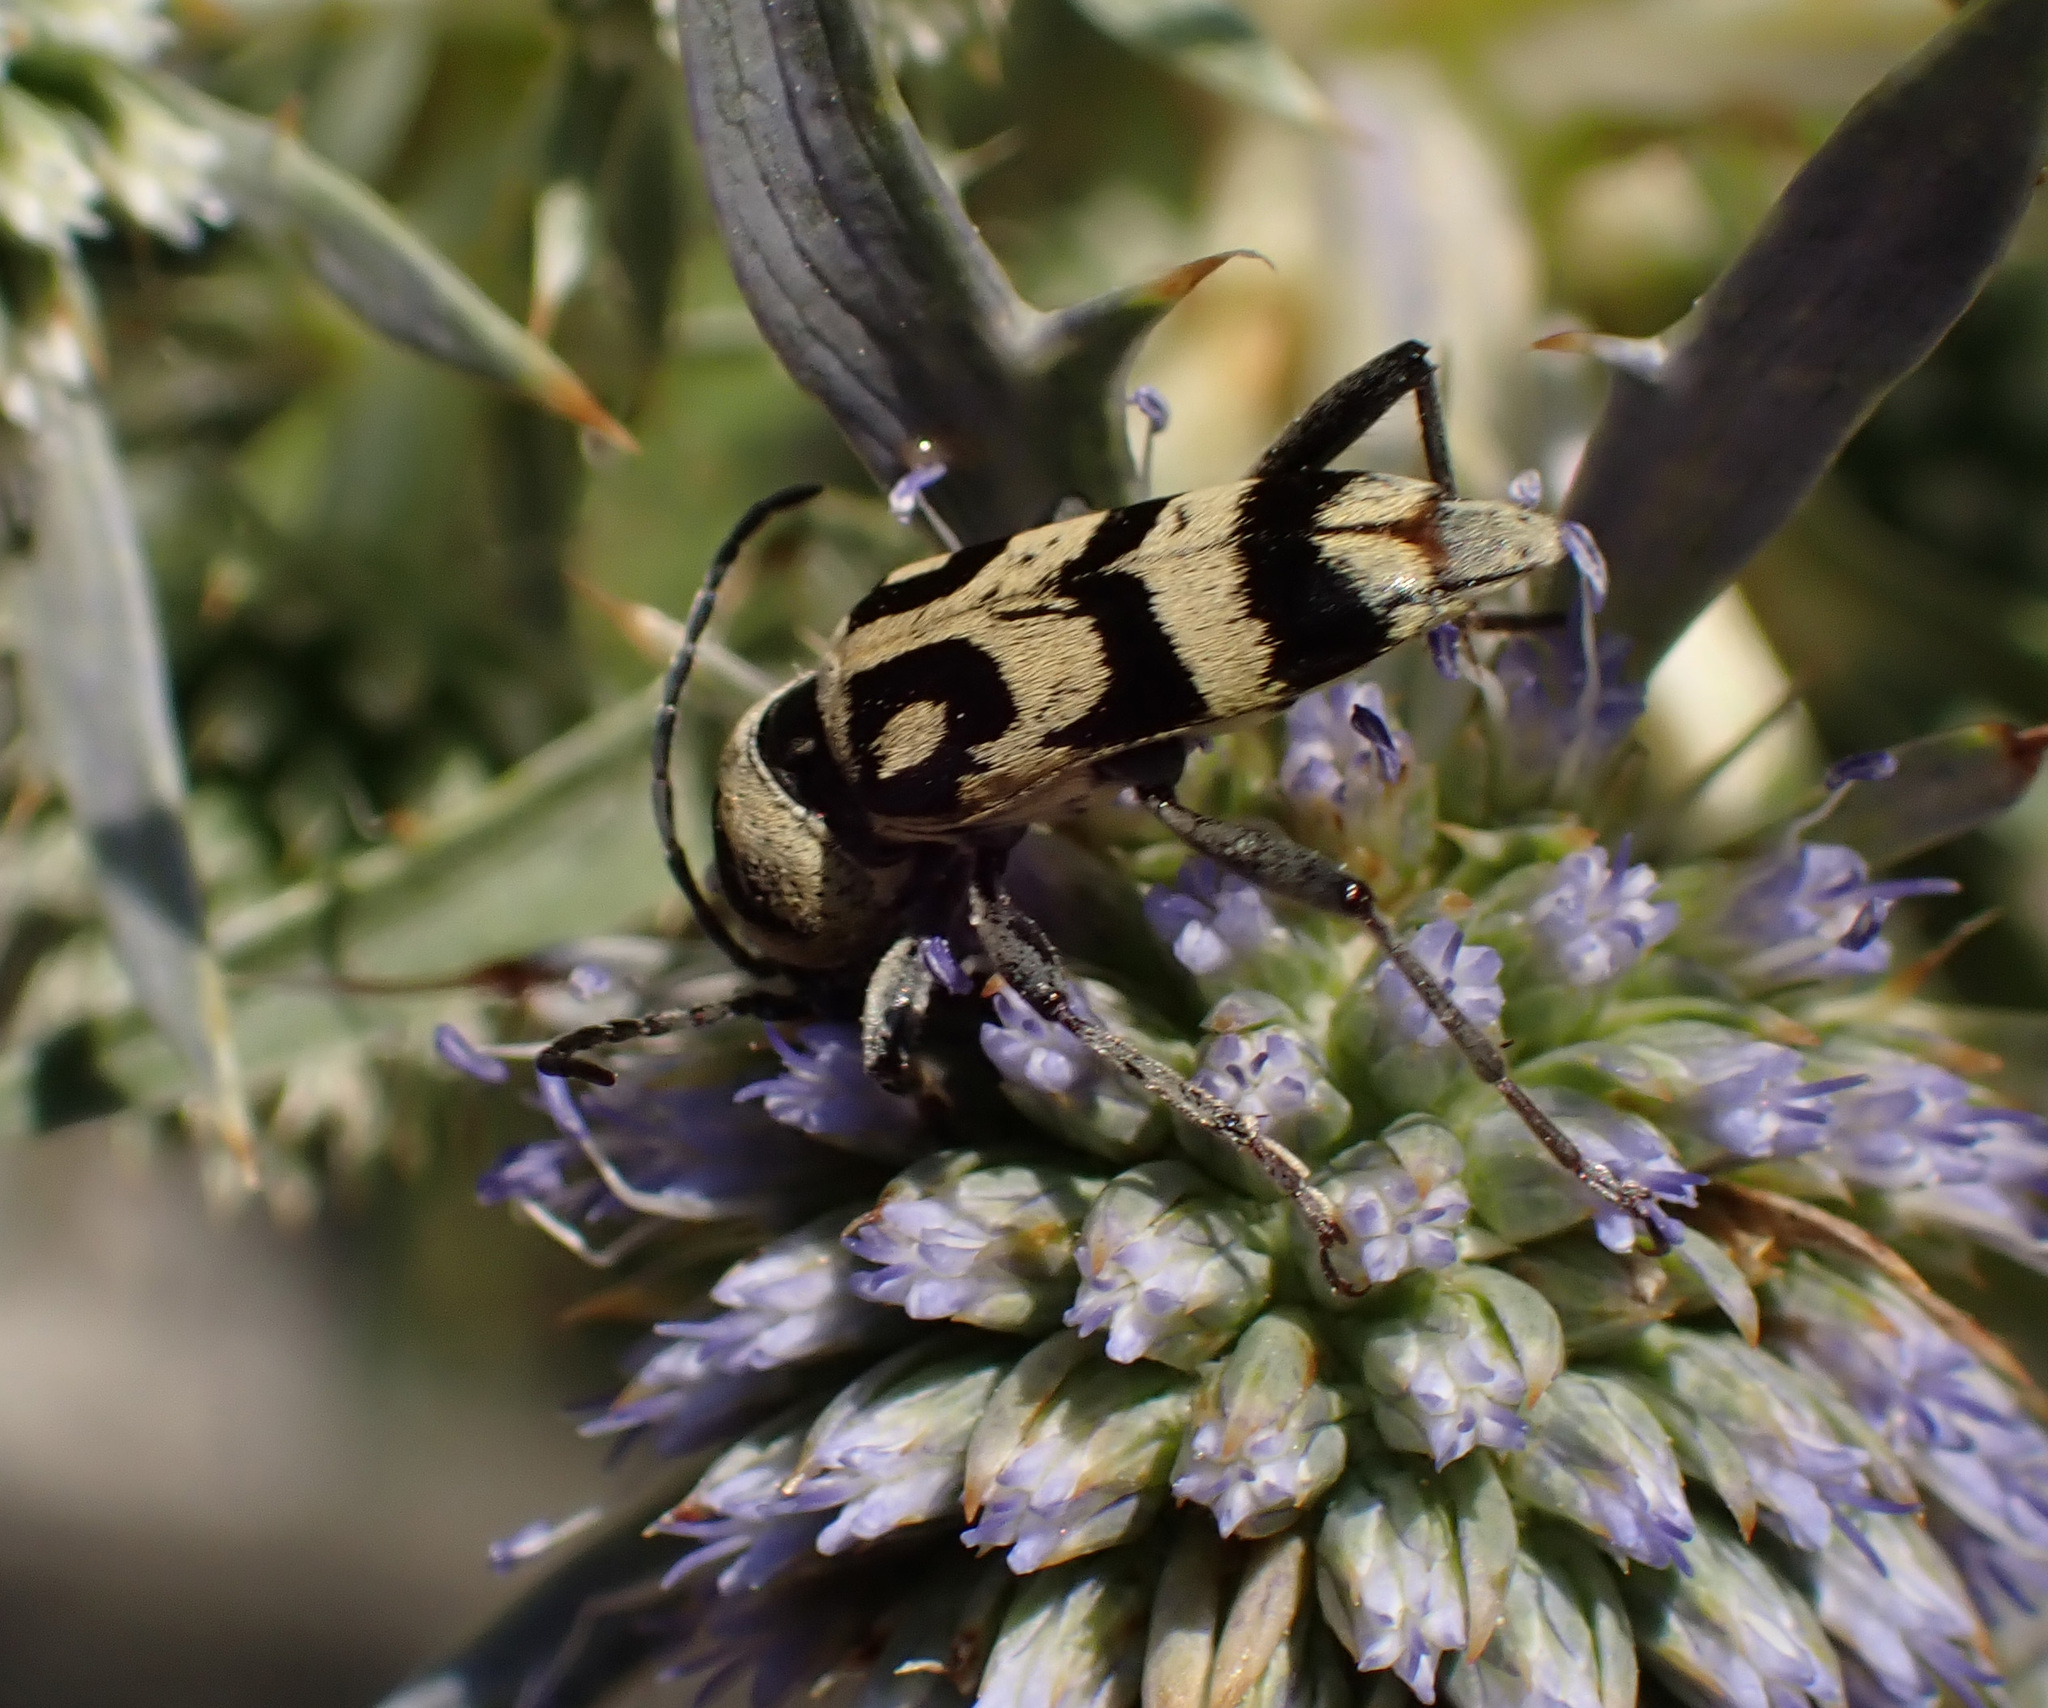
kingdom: Animalia
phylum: Arthropoda
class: Insecta
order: Coleoptera
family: Cerambycidae
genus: Chlorophorus
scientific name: Chlorophorus varius
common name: Grape wood borer
